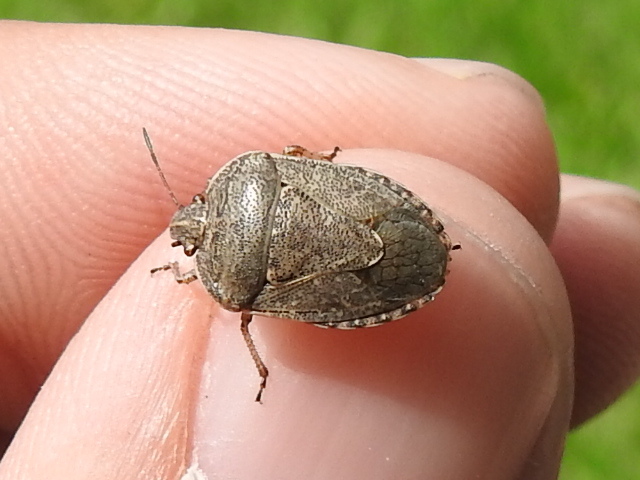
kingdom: Animalia
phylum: Arthropoda
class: Insecta
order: Hemiptera
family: Pentatomidae
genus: Hymenarcys
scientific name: Hymenarcys nervosa
